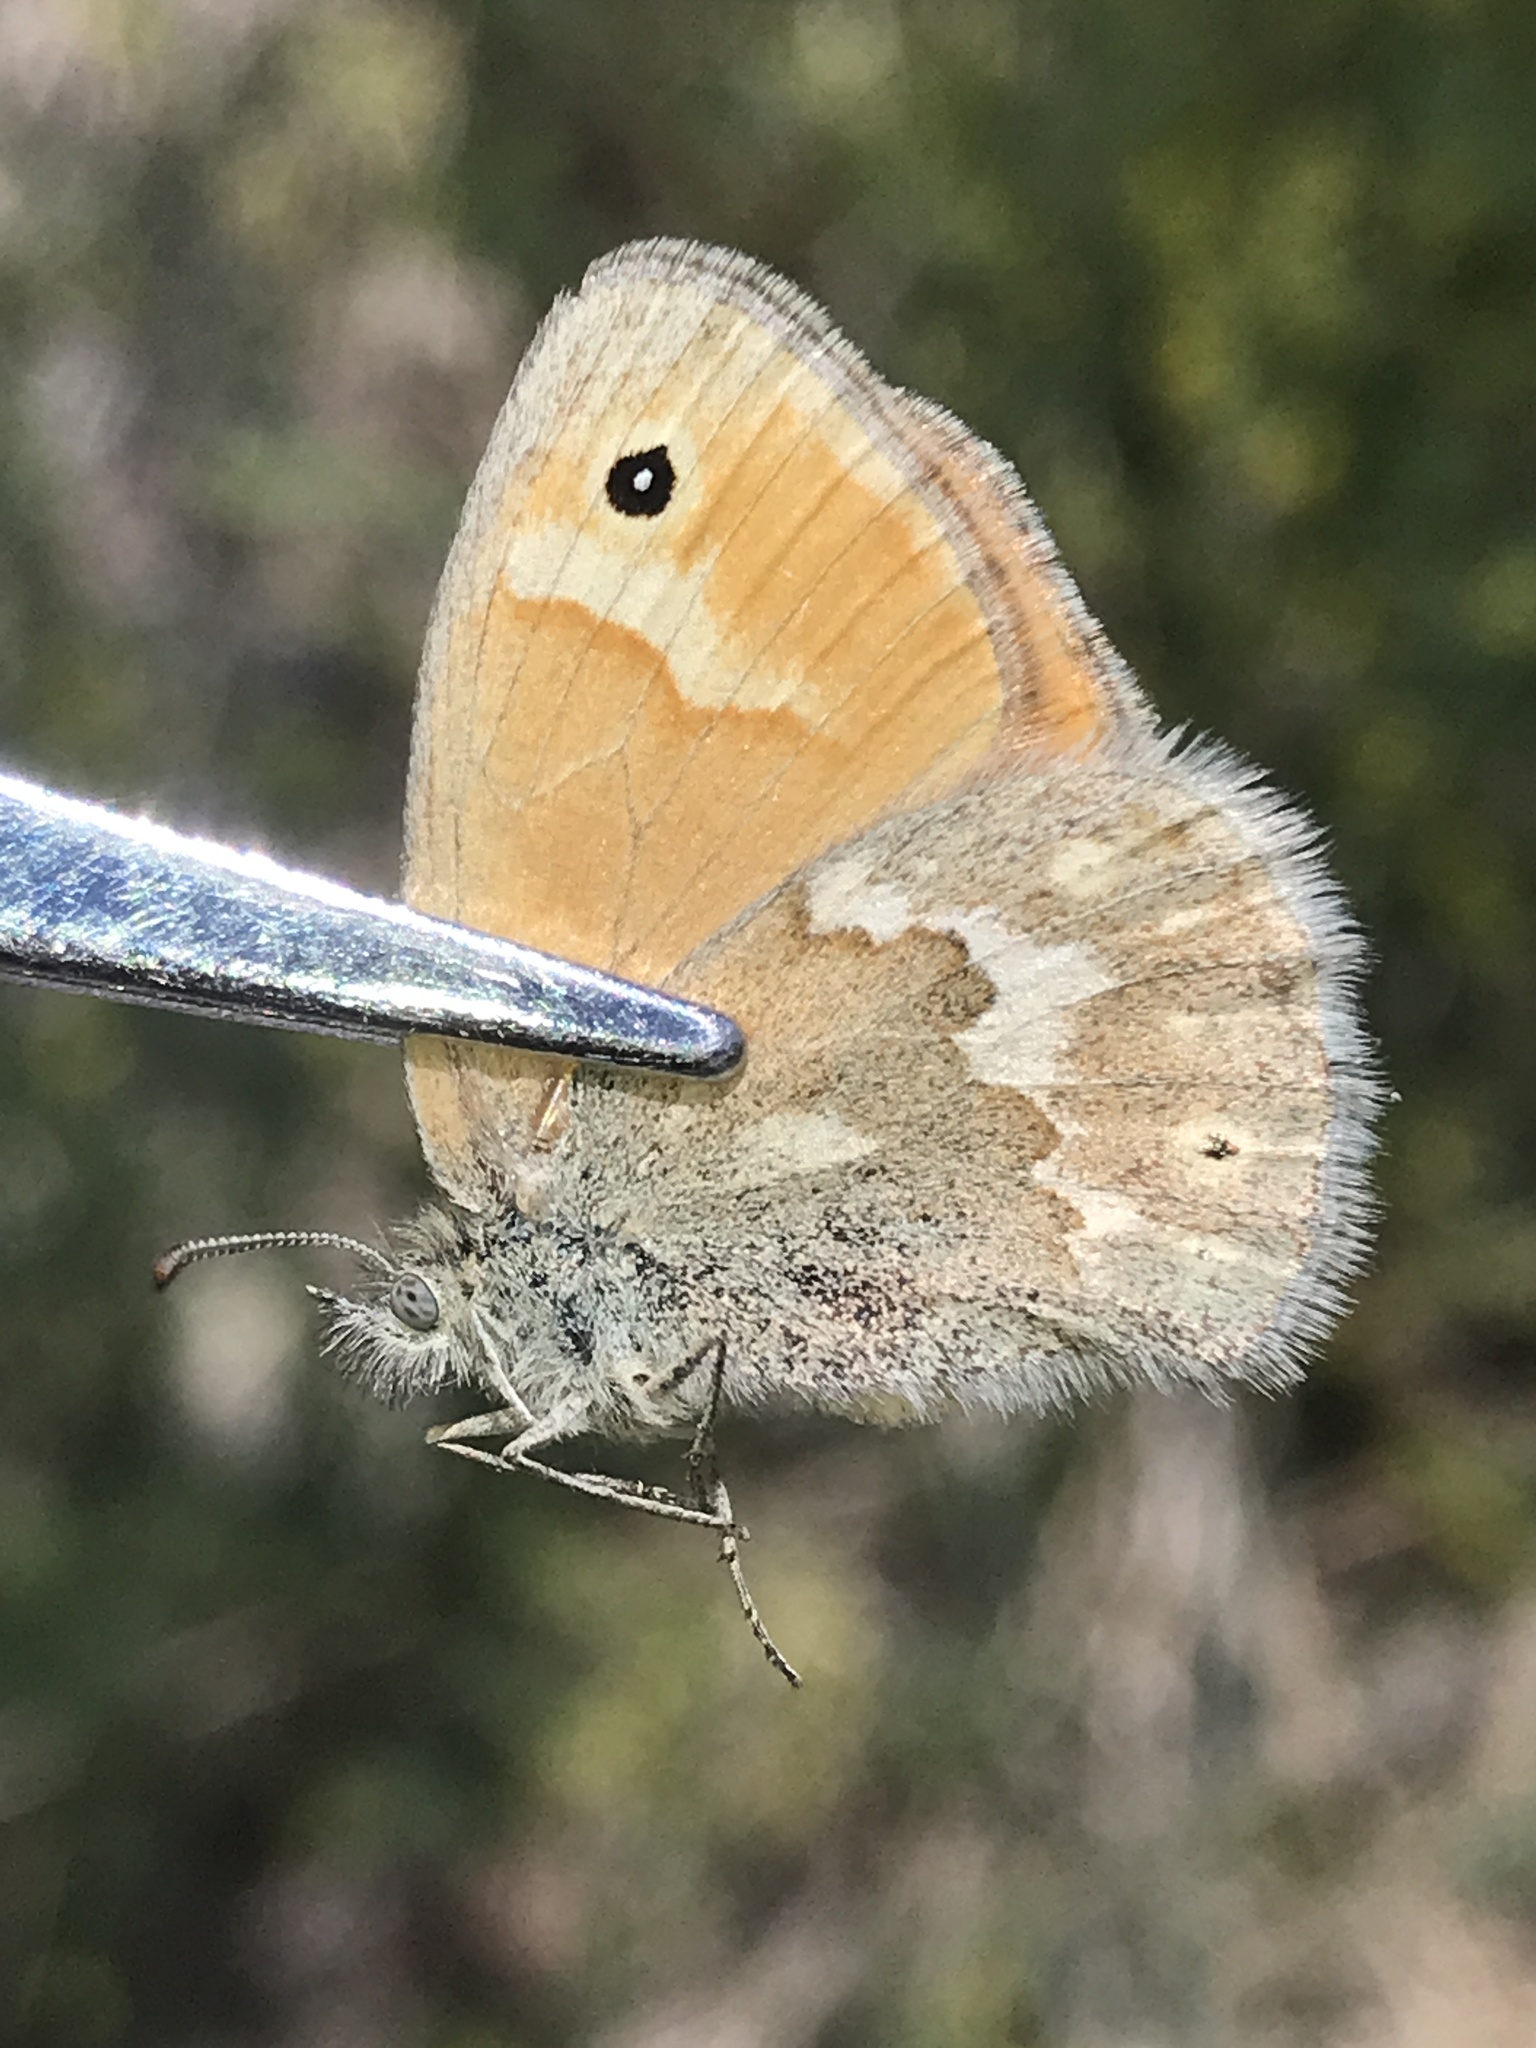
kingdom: Animalia
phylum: Arthropoda
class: Insecta
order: Lepidoptera
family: Nymphalidae
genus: Coenonympha
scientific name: Coenonympha california
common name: Common ringlet
